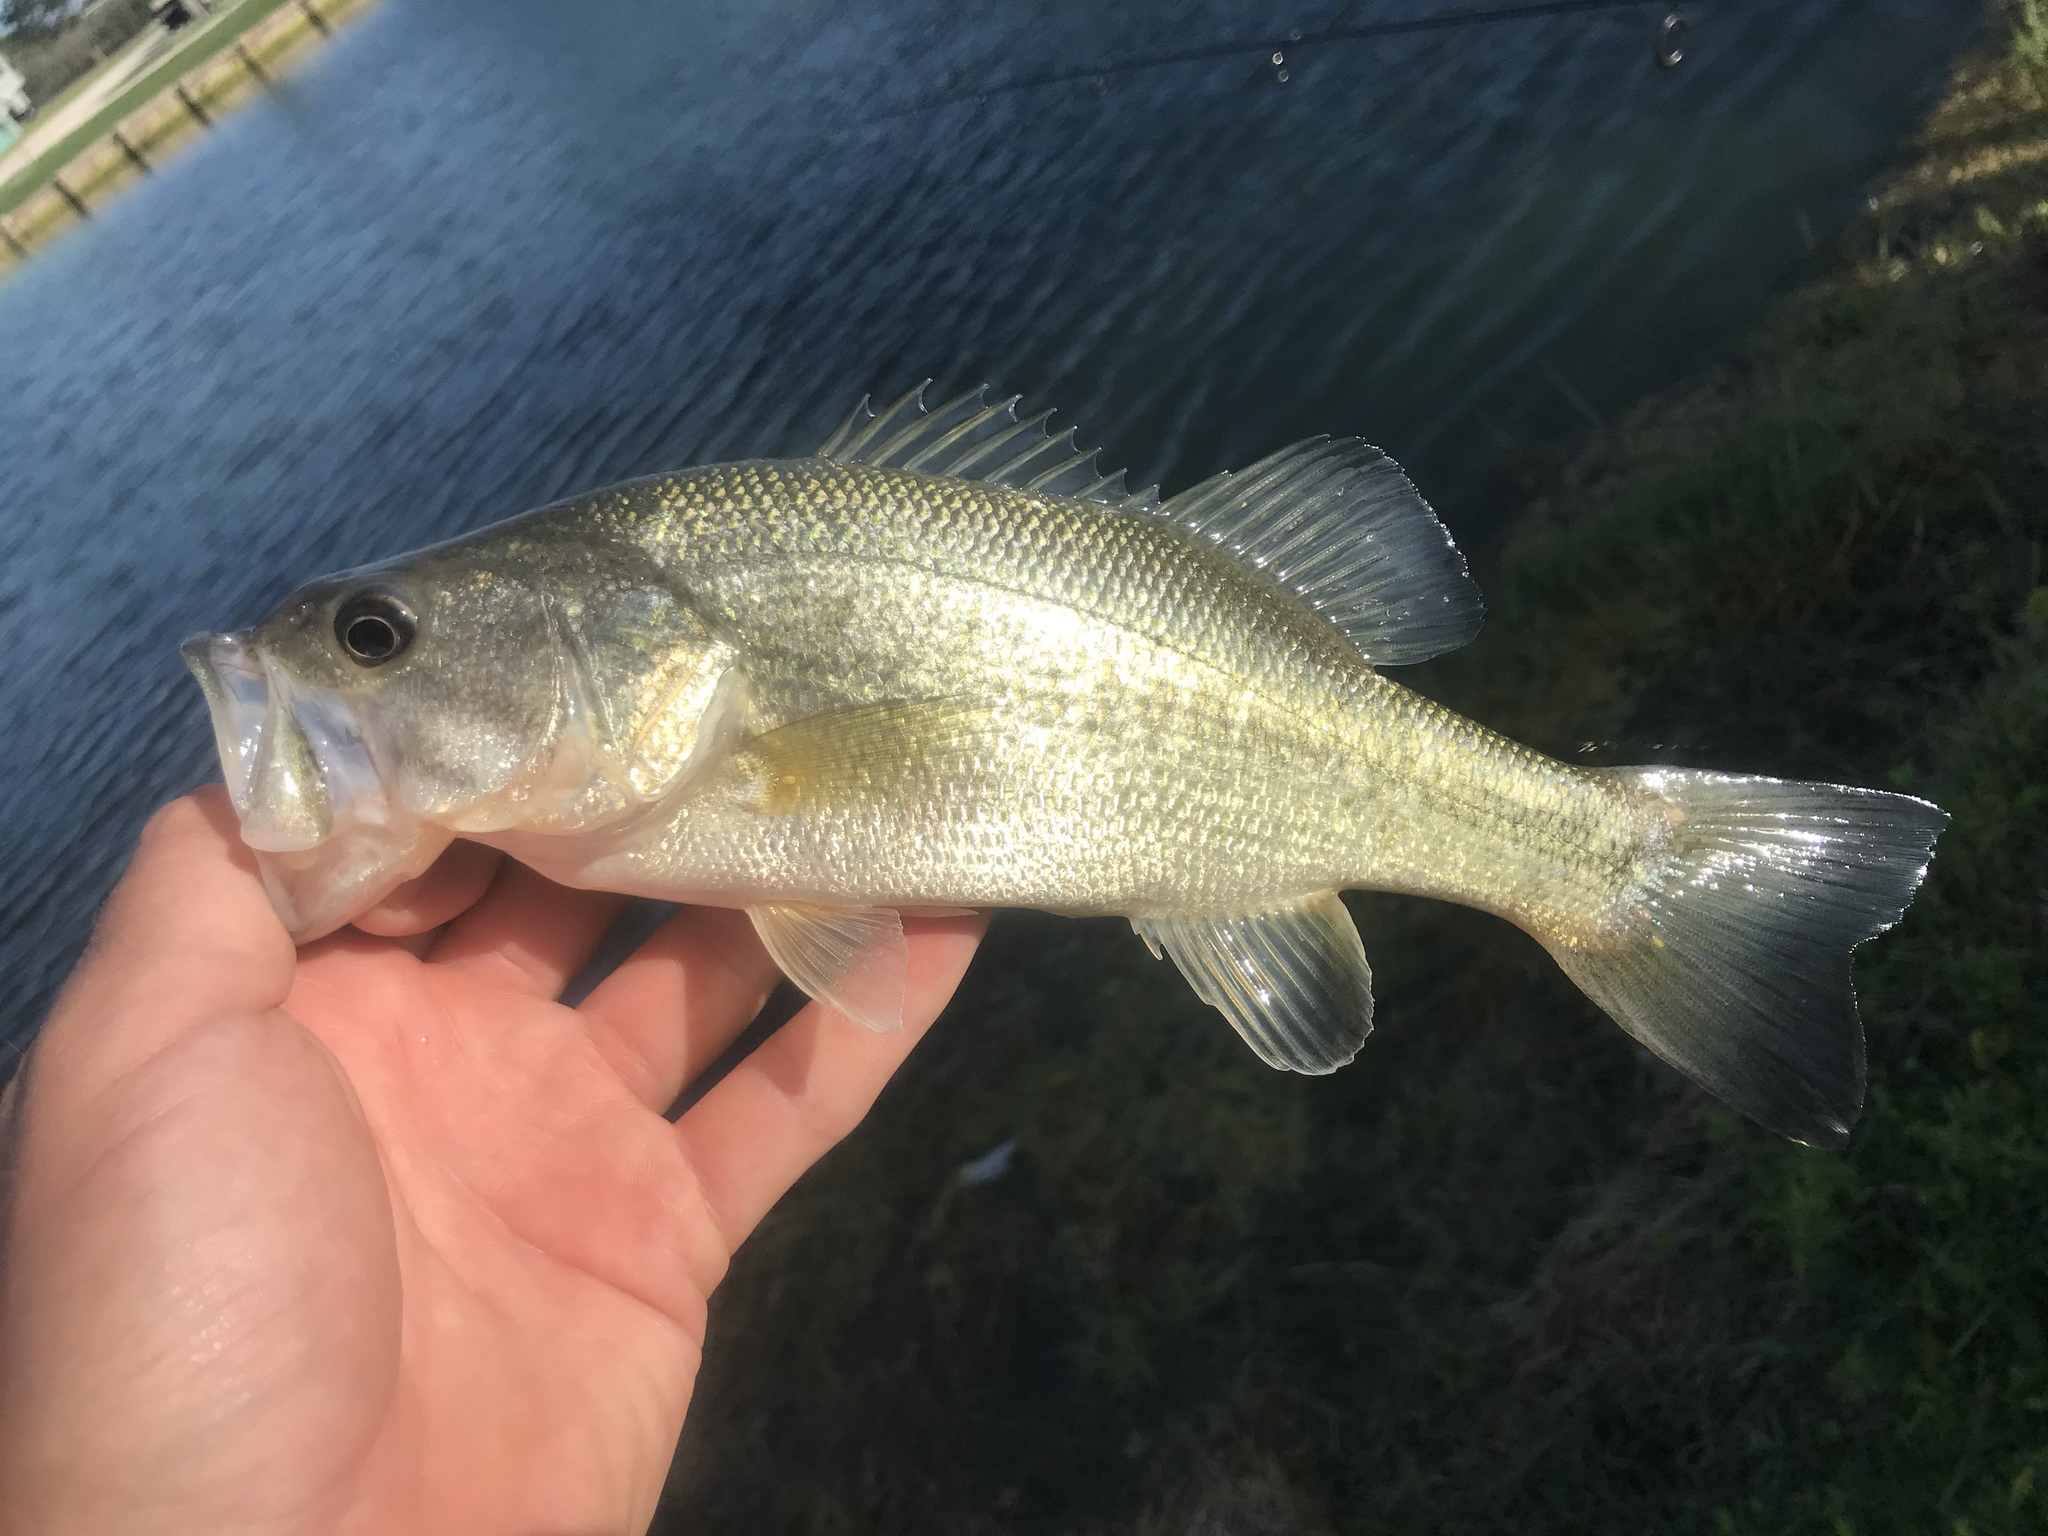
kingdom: Animalia
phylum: Chordata
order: Perciformes
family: Centrarchidae
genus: Micropterus
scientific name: Micropterus
